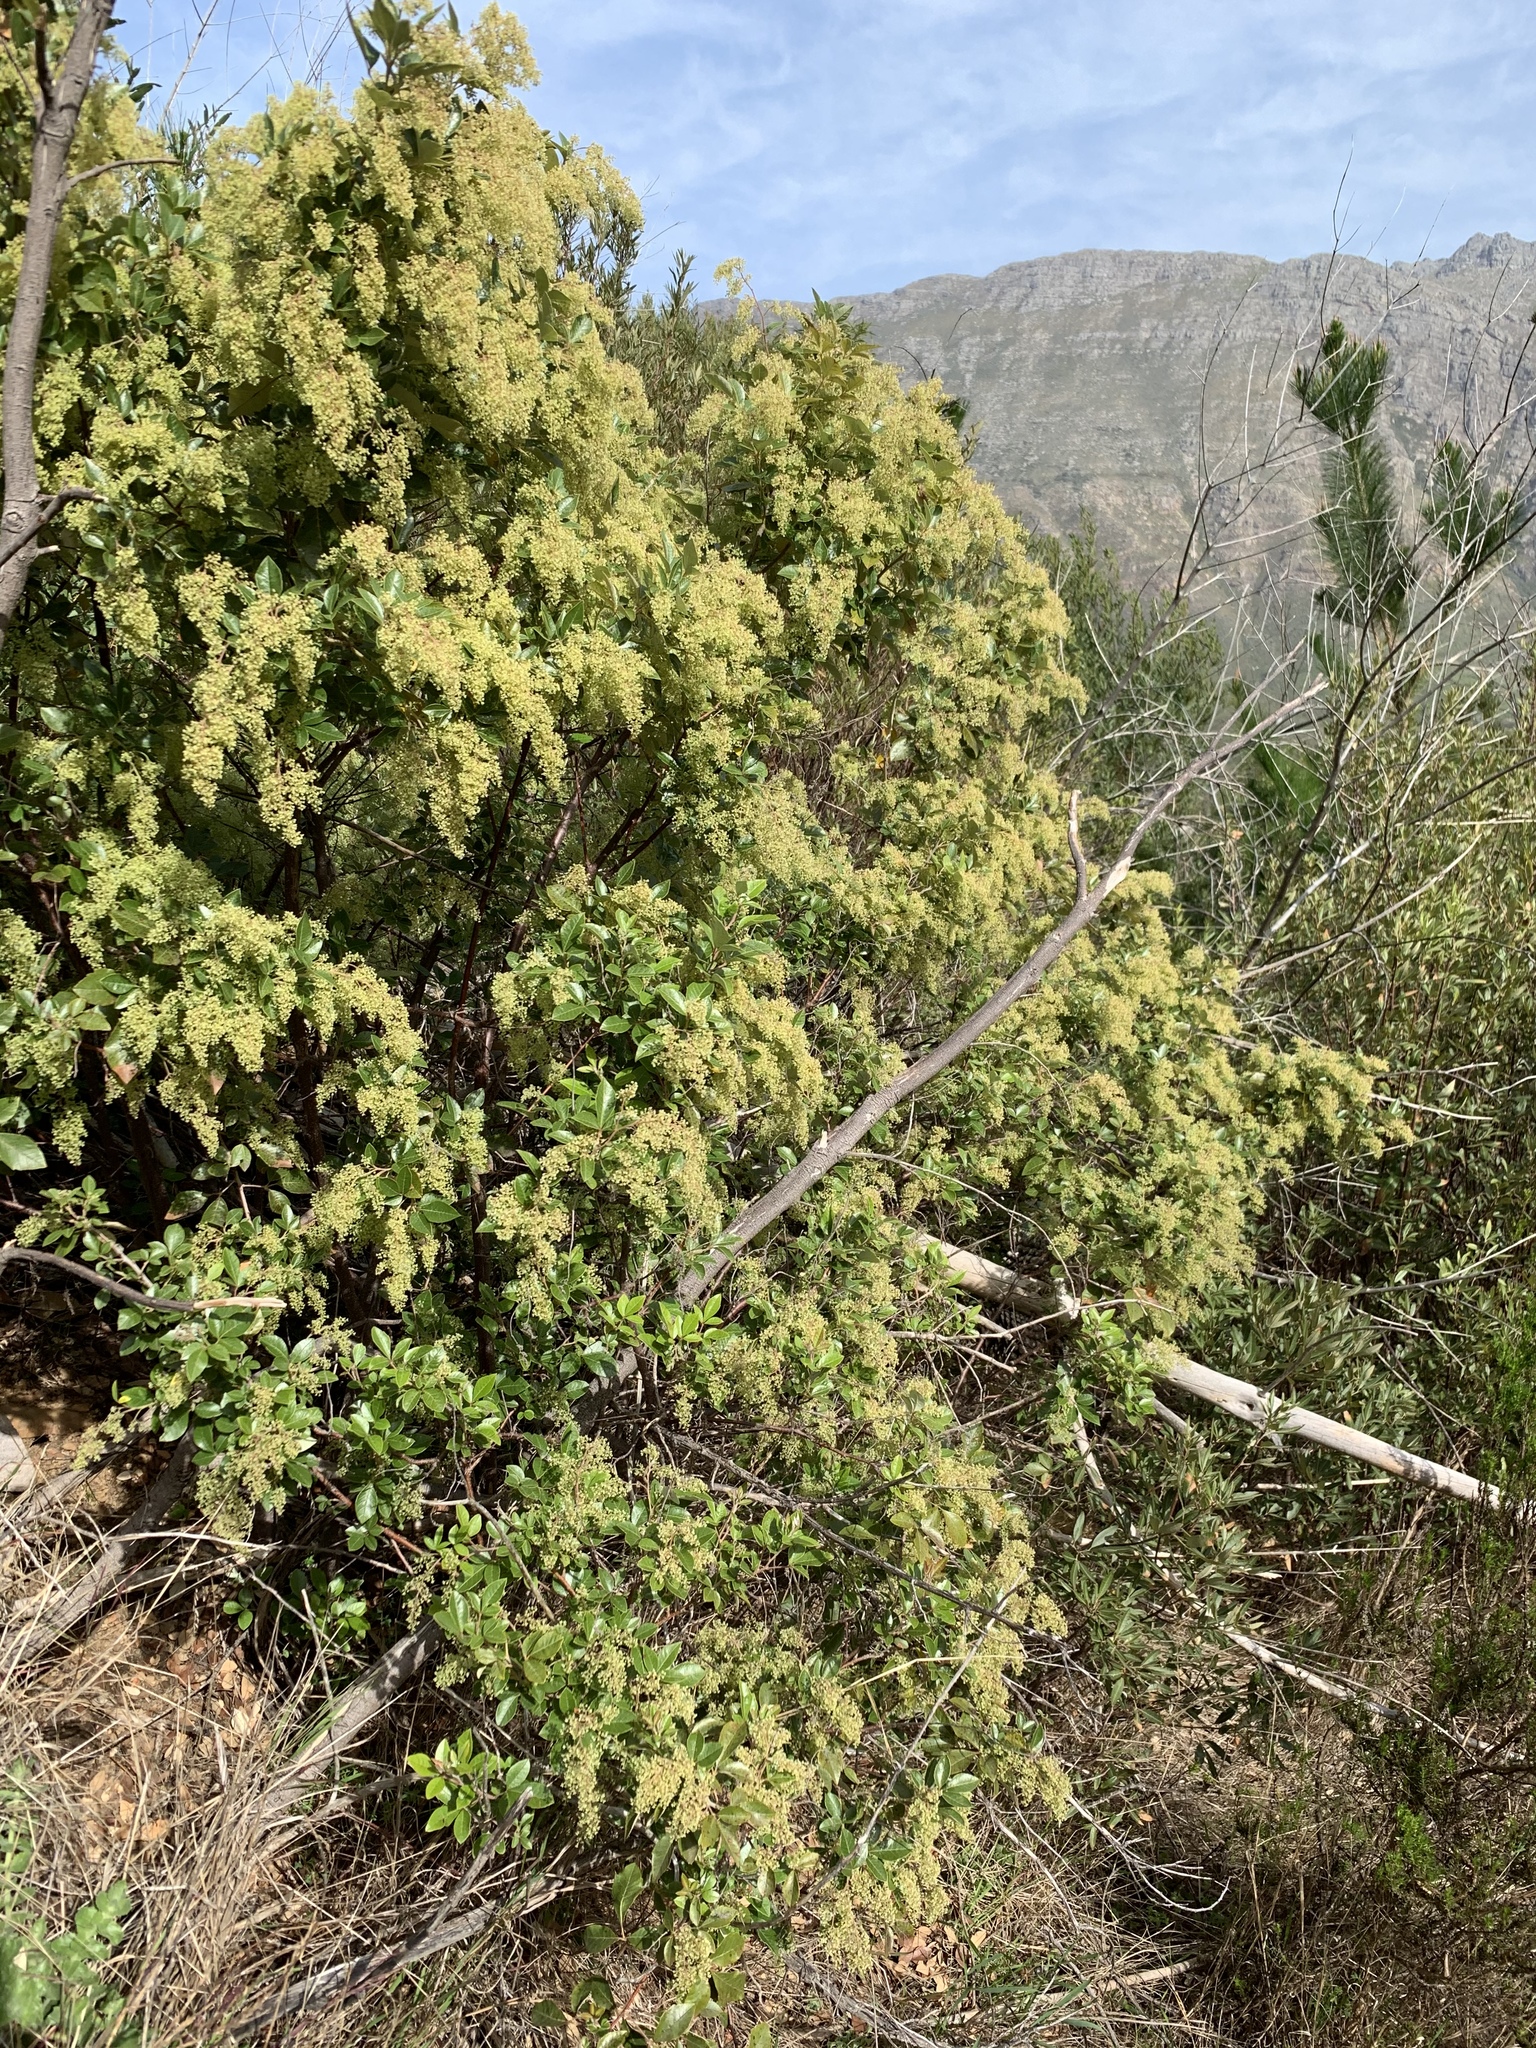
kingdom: Plantae
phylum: Tracheophyta
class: Magnoliopsida
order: Sapindales
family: Anacardiaceae
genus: Searsia
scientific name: Searsia tomentosa
